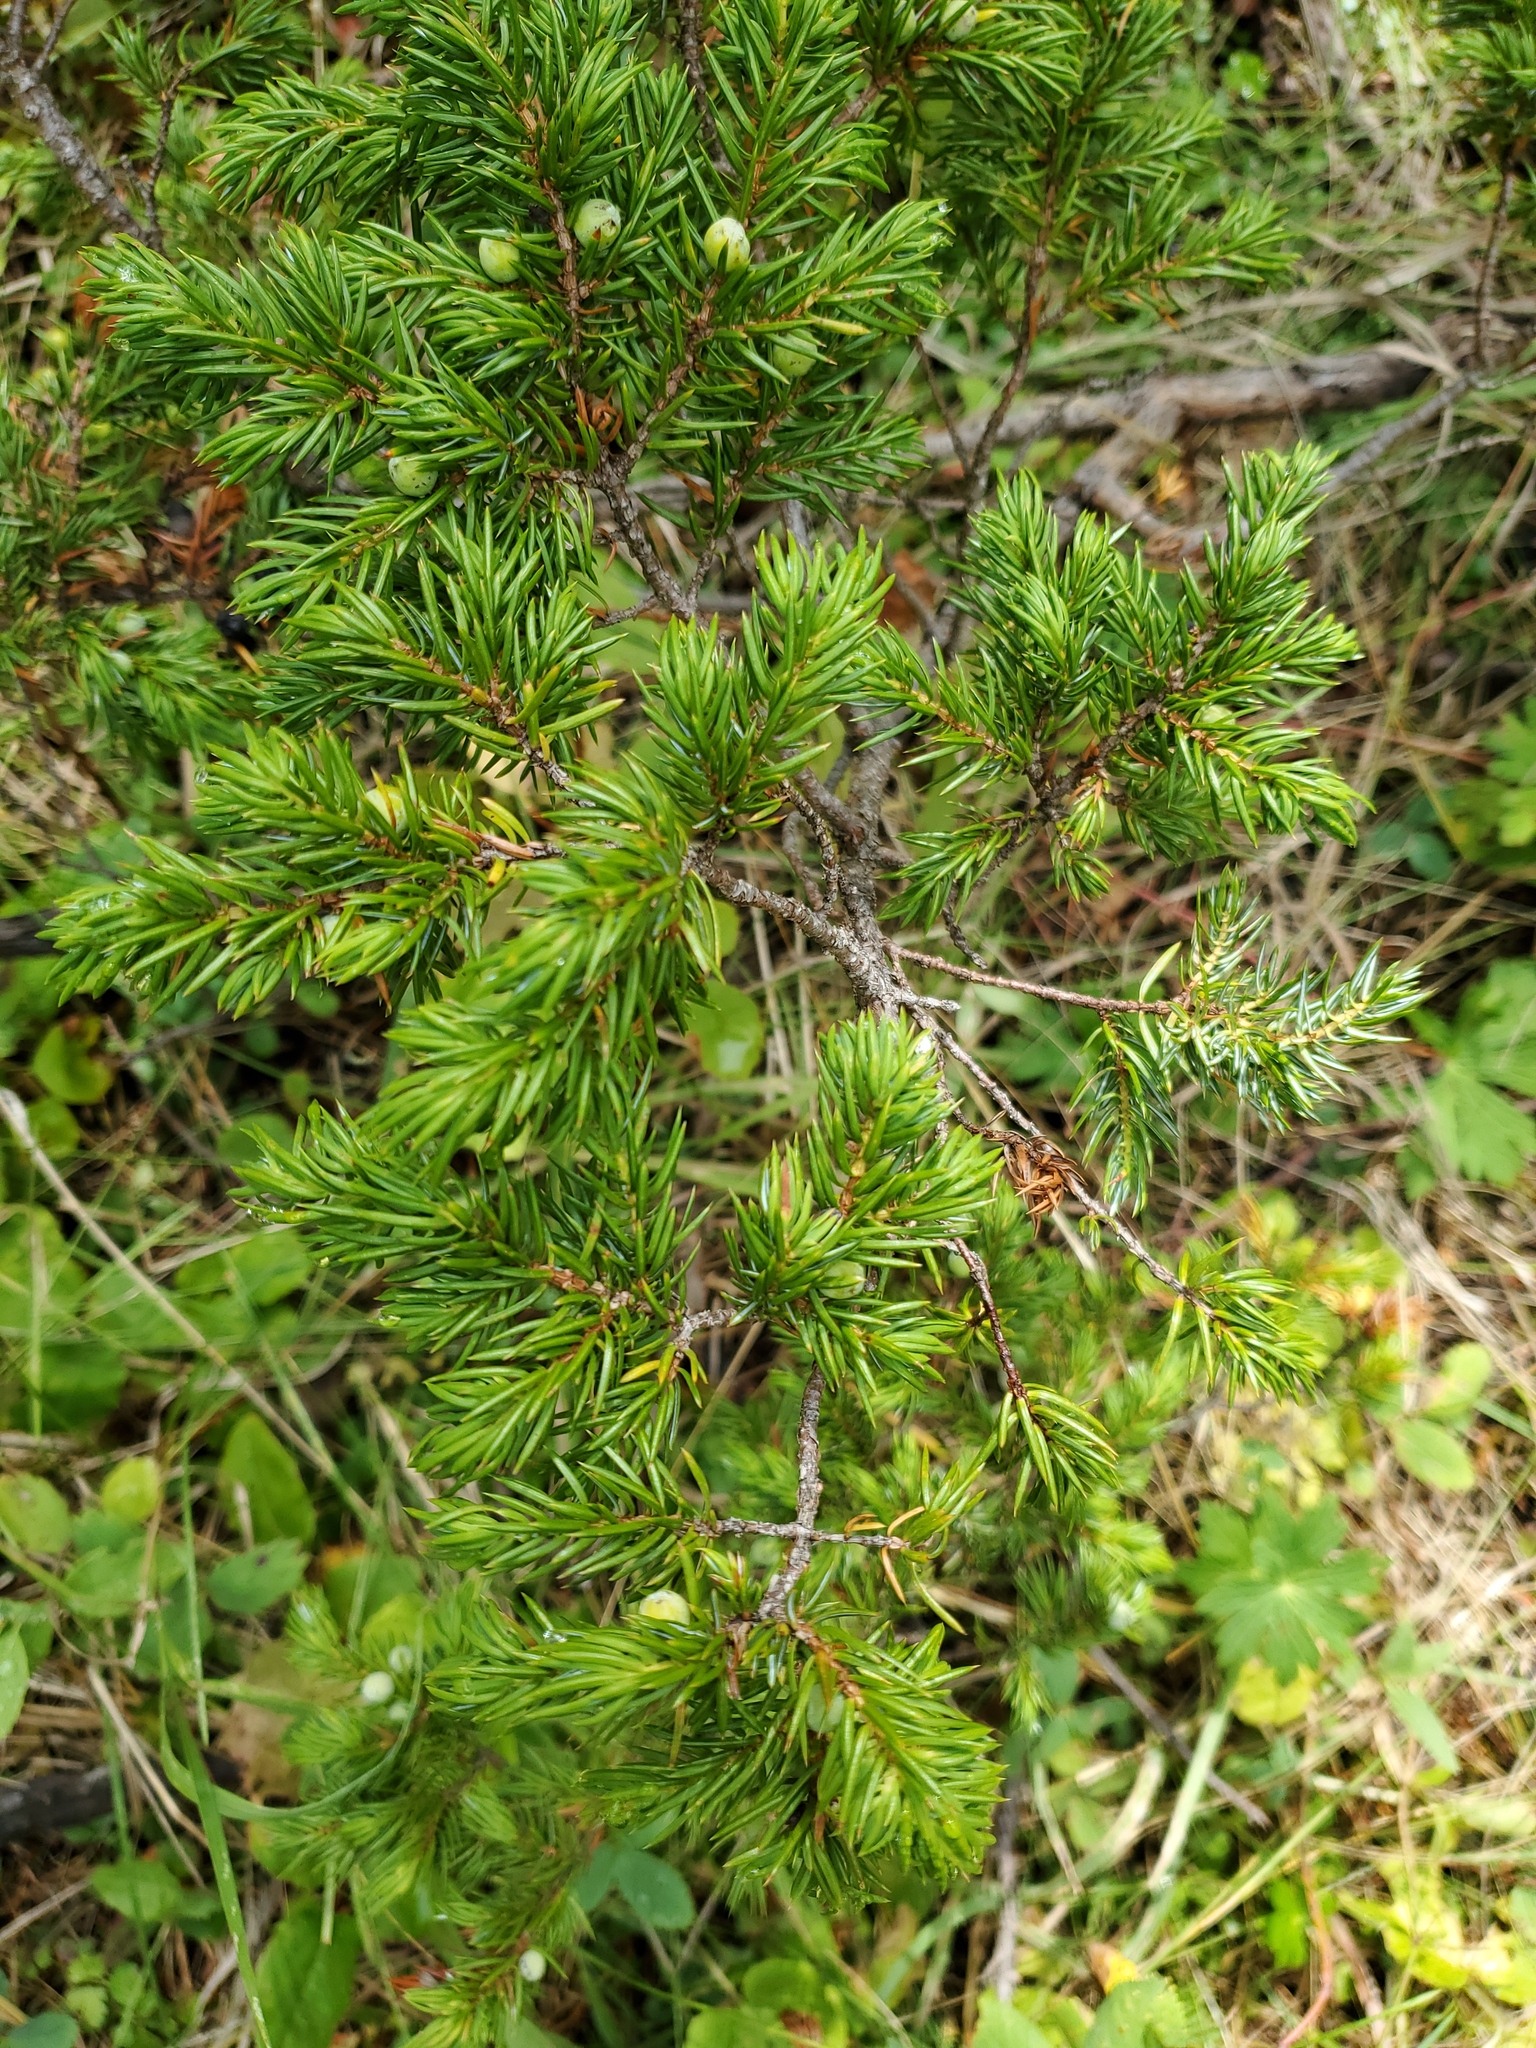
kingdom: Plantae
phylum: Tracheophyta
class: Pinopsida
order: Pinales
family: Cupressaceae
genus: Juniperus
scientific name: Juniperus communis
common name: Common juniper
